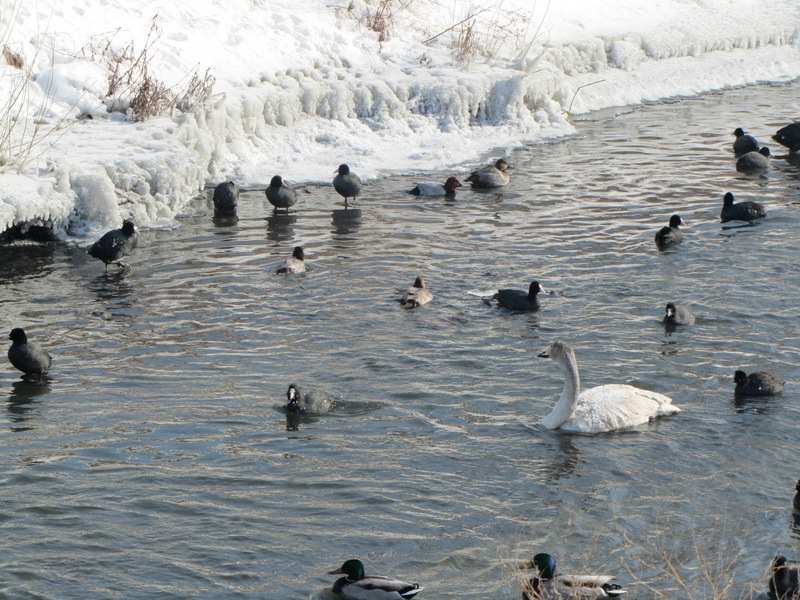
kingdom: Animalia
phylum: Chordata
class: Aves
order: Anseriformes
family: Anatidae
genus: Cygnus
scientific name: Cygnus cygnus
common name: Whooper swan
